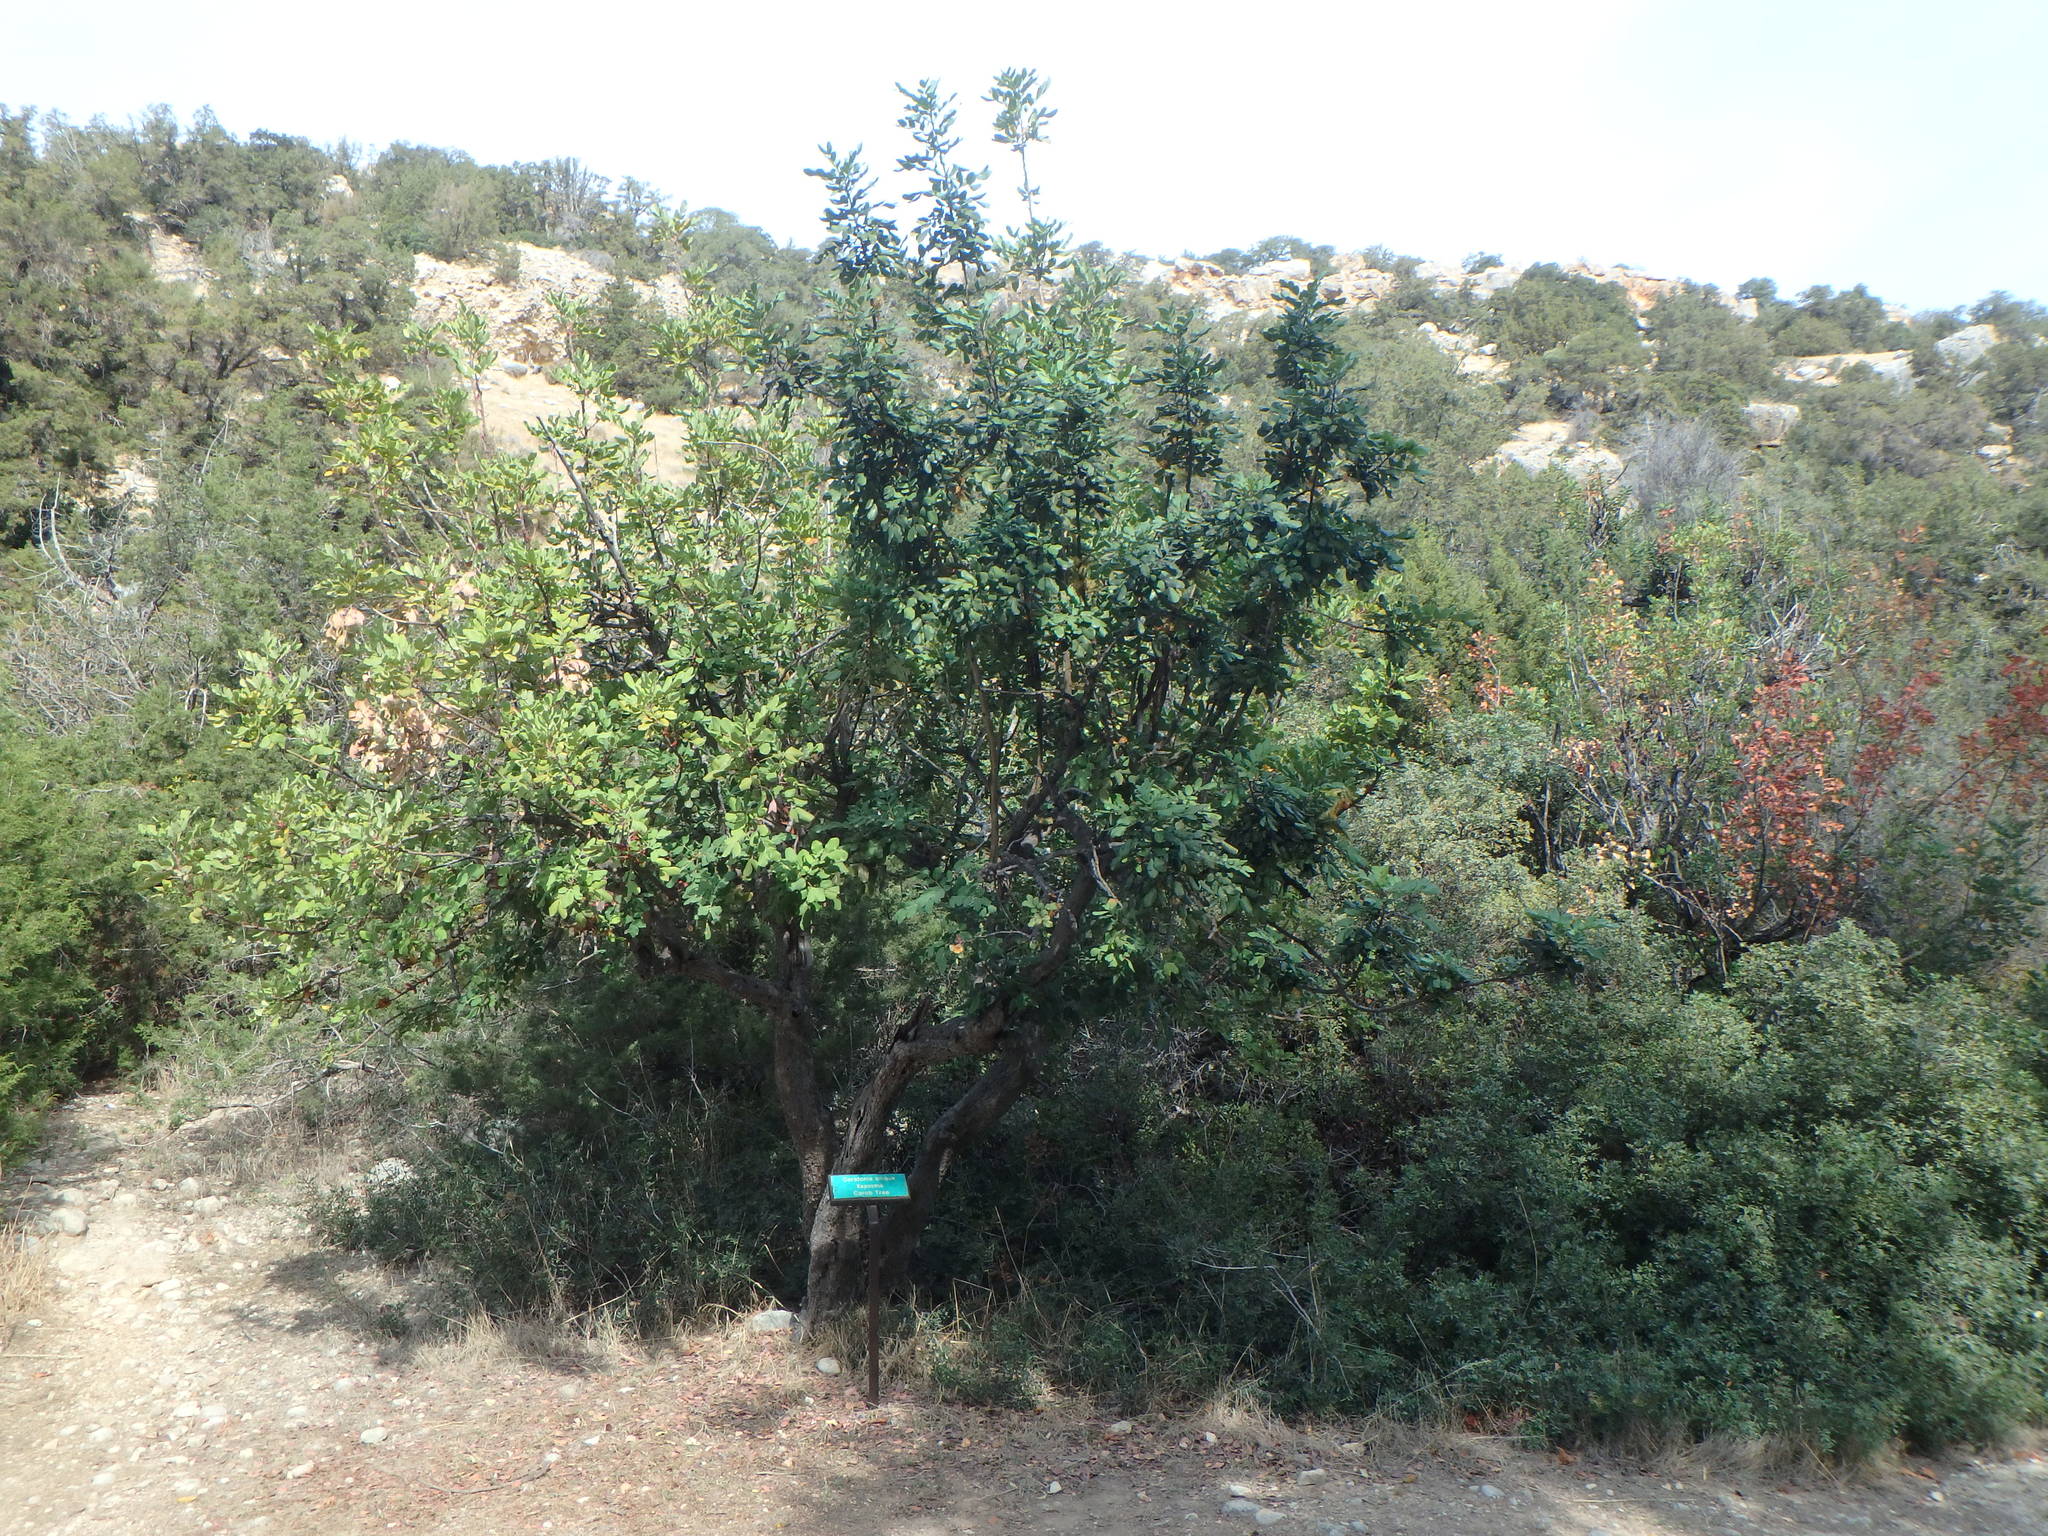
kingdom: Plantae
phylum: Tracheophyta
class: Magnoliopsida
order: Fabales
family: Fabaceae
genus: Ceratonia
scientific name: Ceratonia siliqua
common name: Carob
